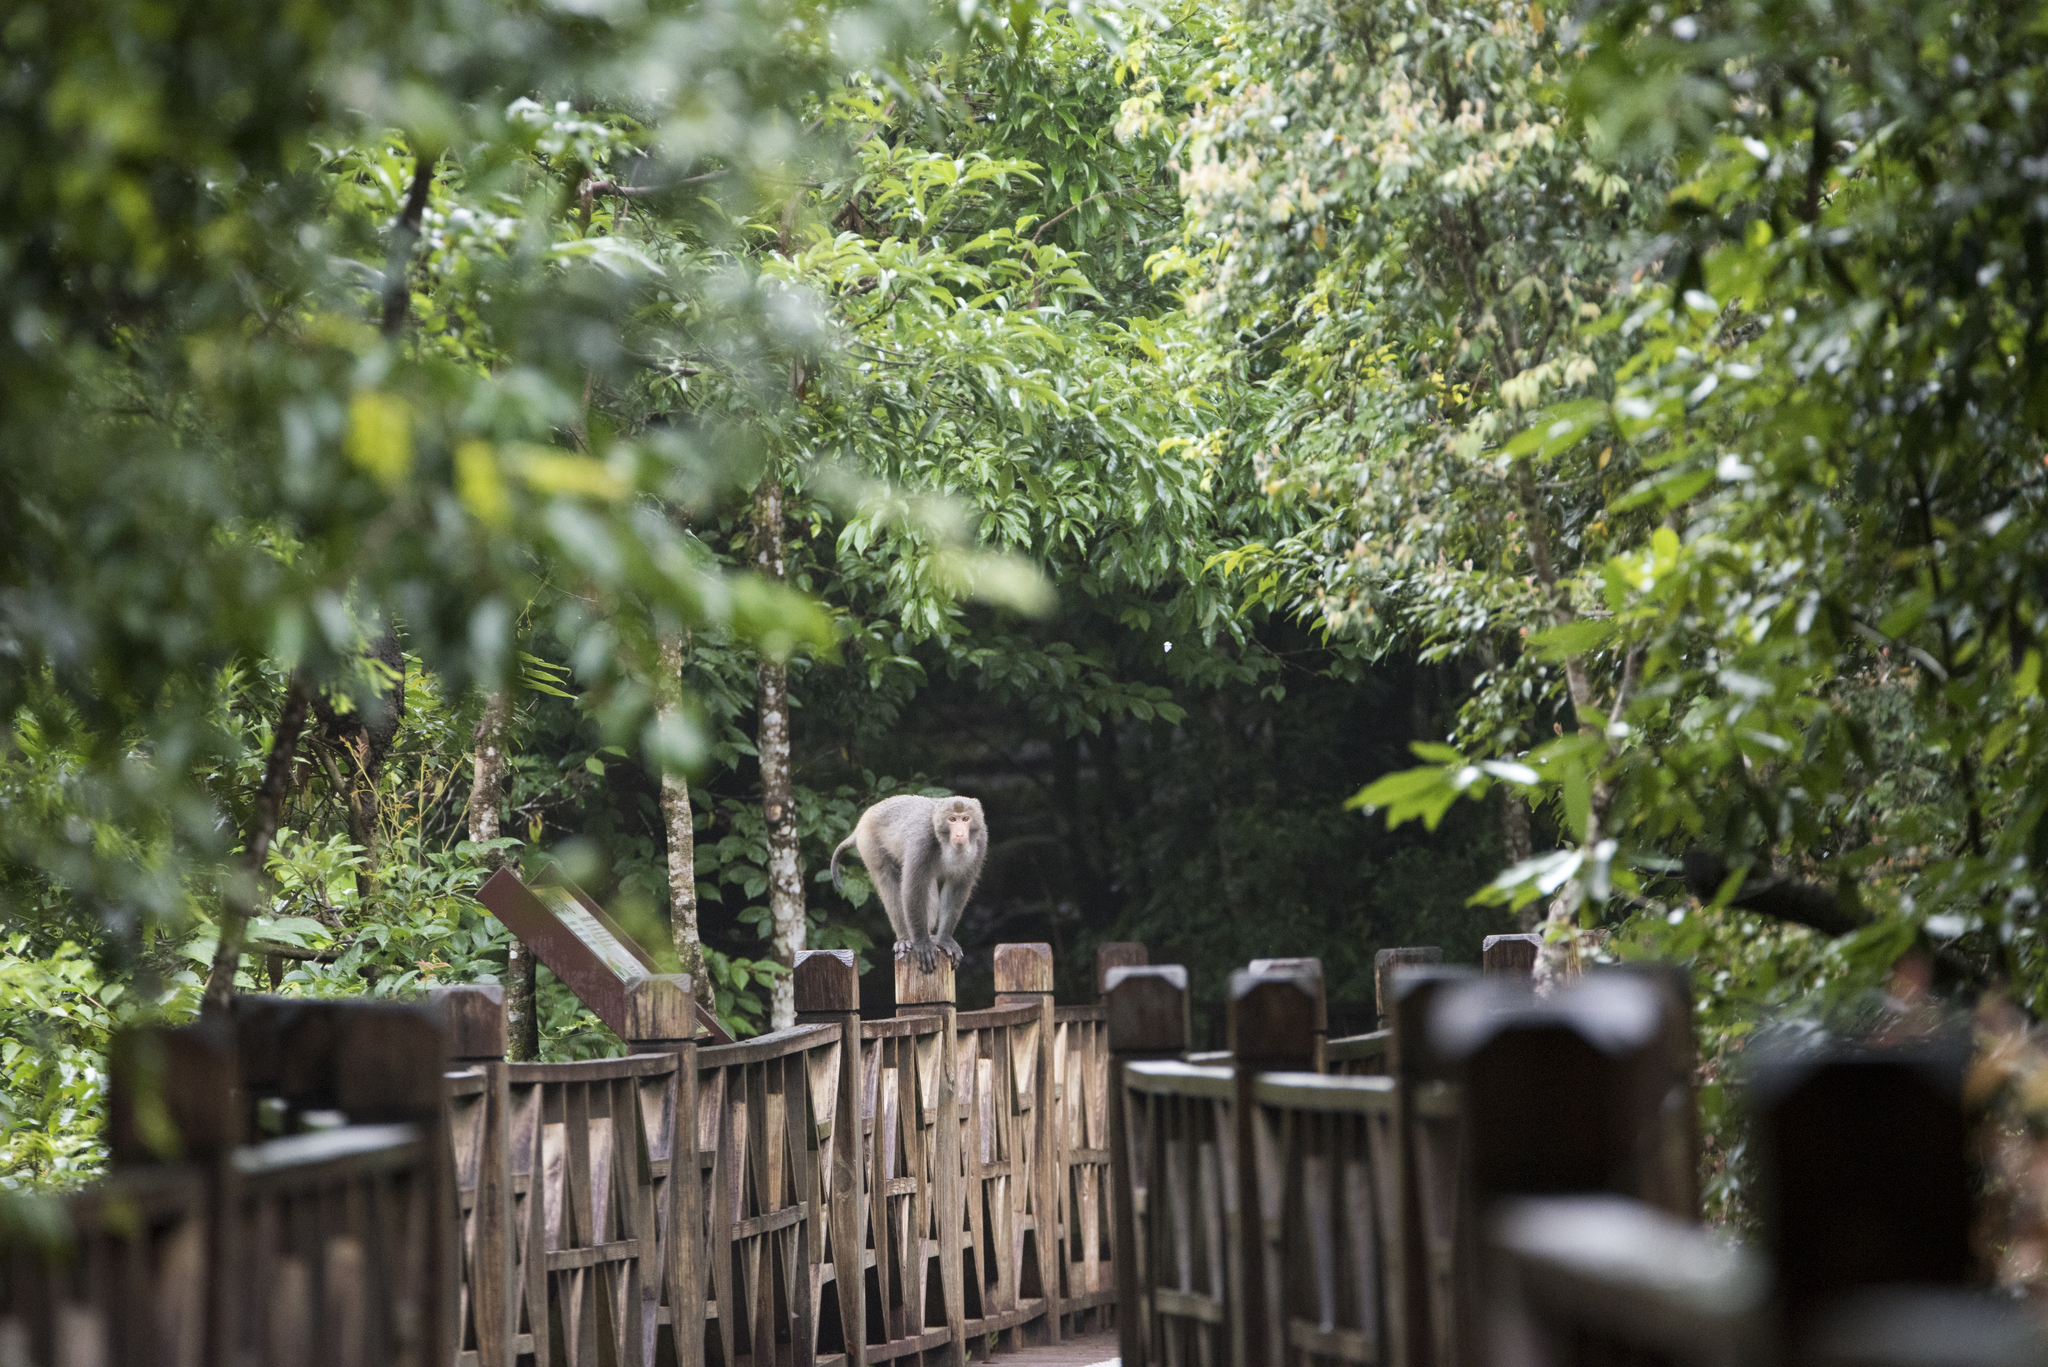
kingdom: Animalia
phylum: Chordata
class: Mammalia
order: Primates
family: Cercopithecidae
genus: Macaca
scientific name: Macaca cyclopis
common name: Formosan rock macaque
